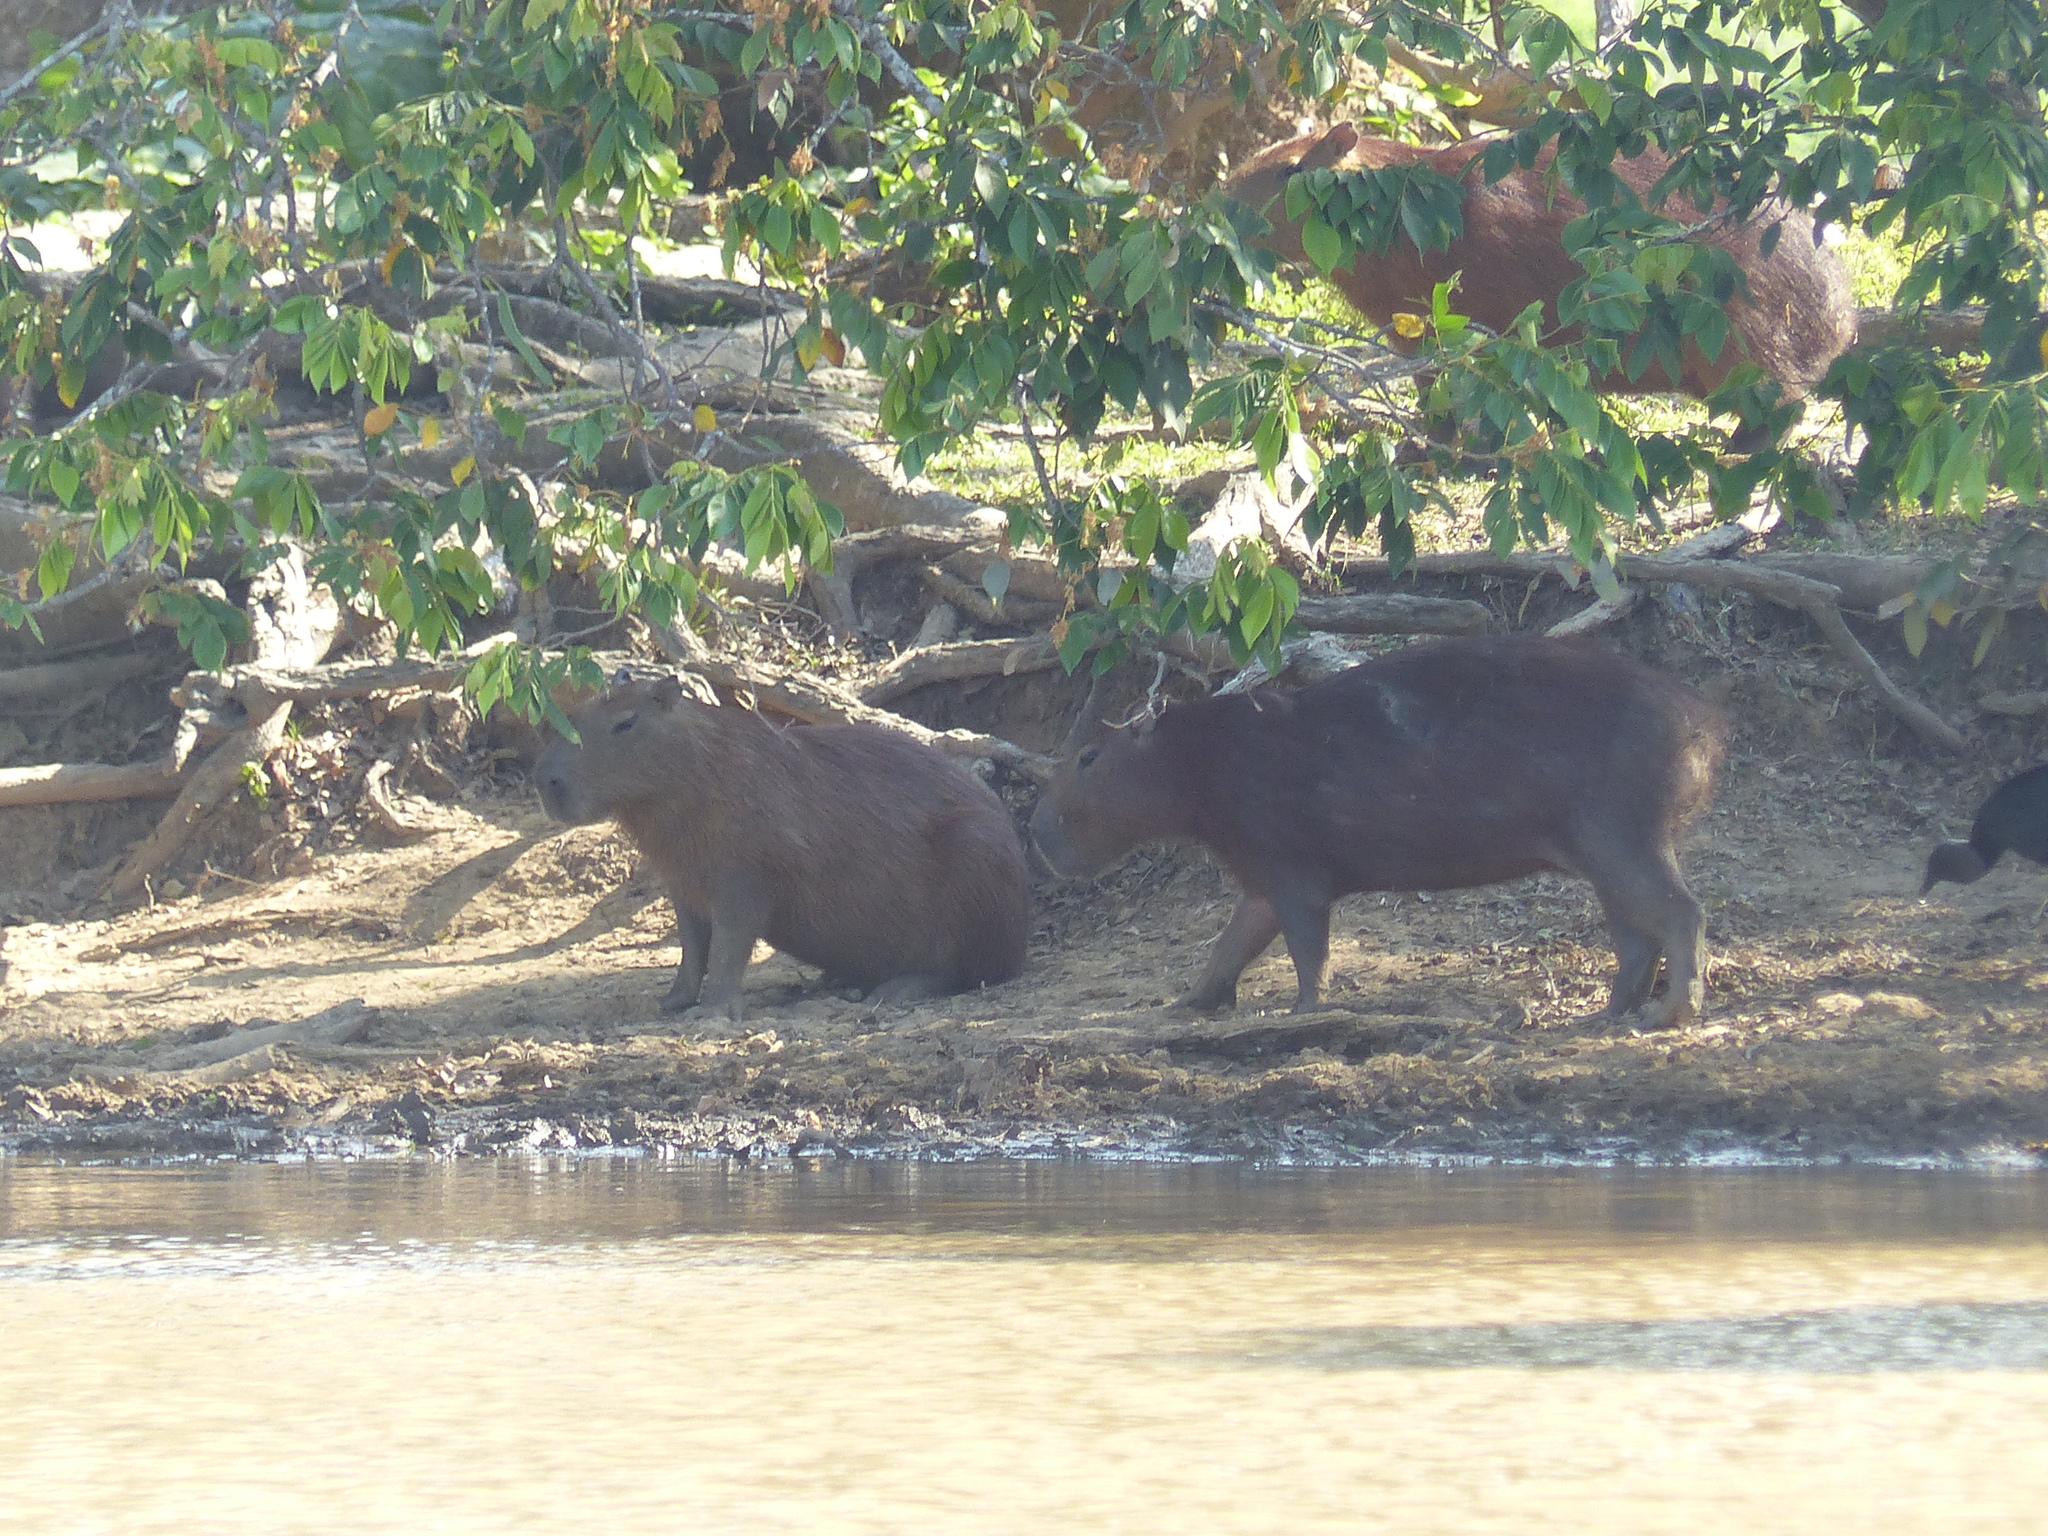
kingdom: Animalia
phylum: Chordata
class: Mammalia
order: Rodentia
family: Caviidae
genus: Hydrochoerus
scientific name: Hydrochoerus hydrochaeris
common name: Capybara
